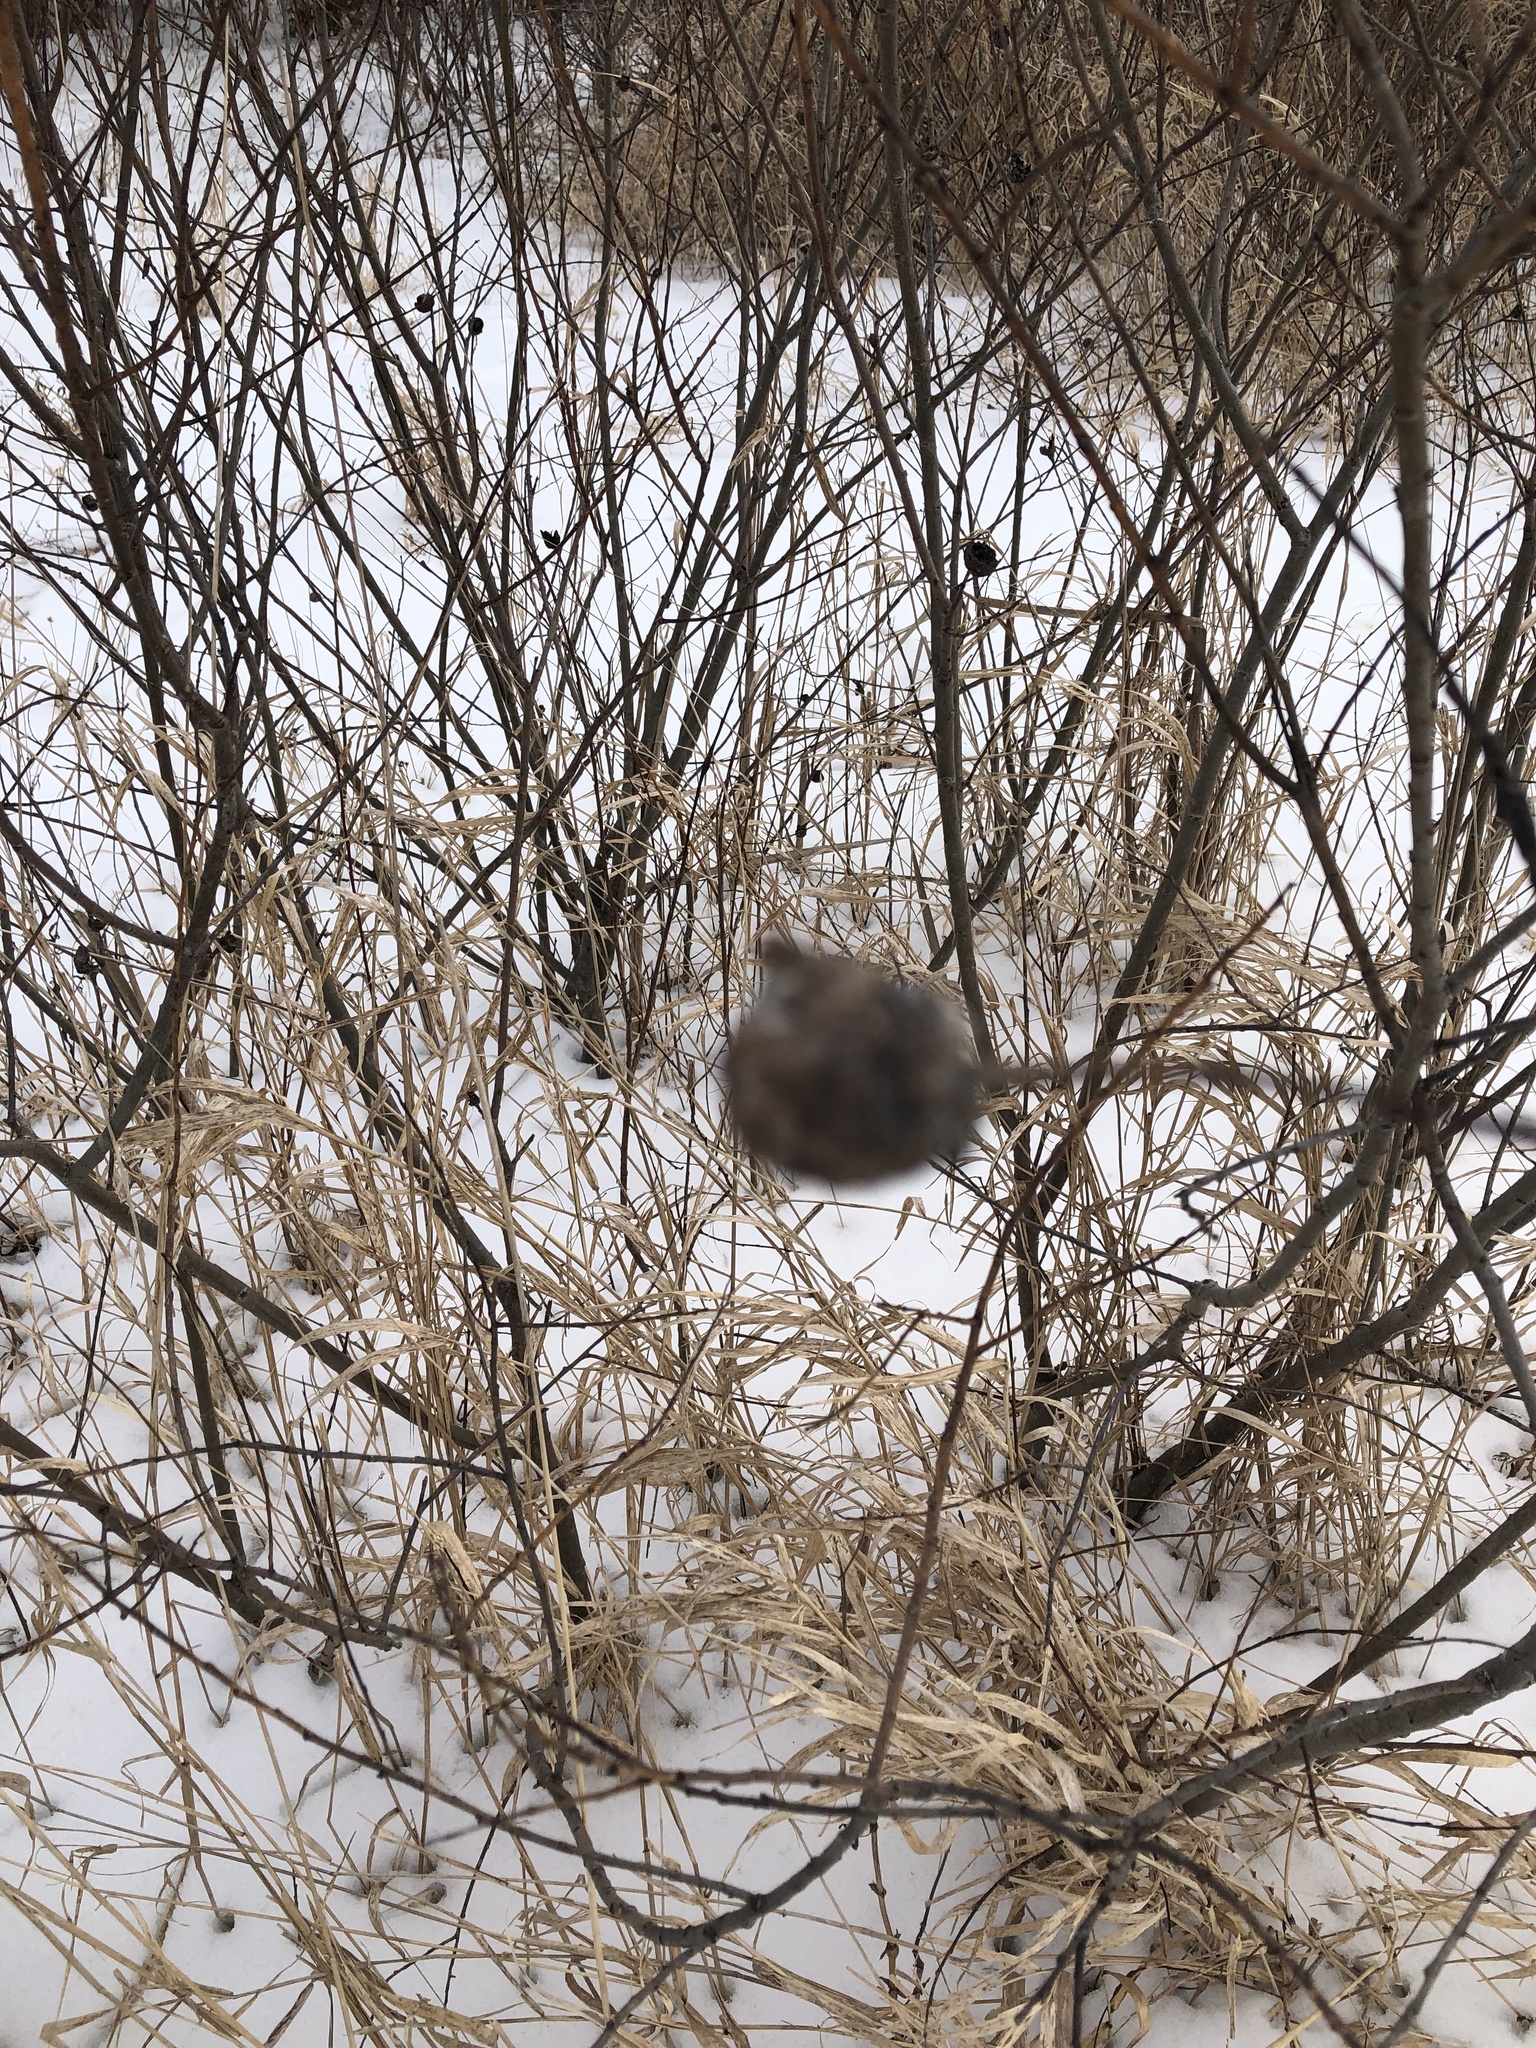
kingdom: Animalia
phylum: Arthropoda
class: Insecta
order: Diptera
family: Cecidomyiidae
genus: Rabdophaga
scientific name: Rabdophaga strobiloides
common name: Willow pinecone gall midge
